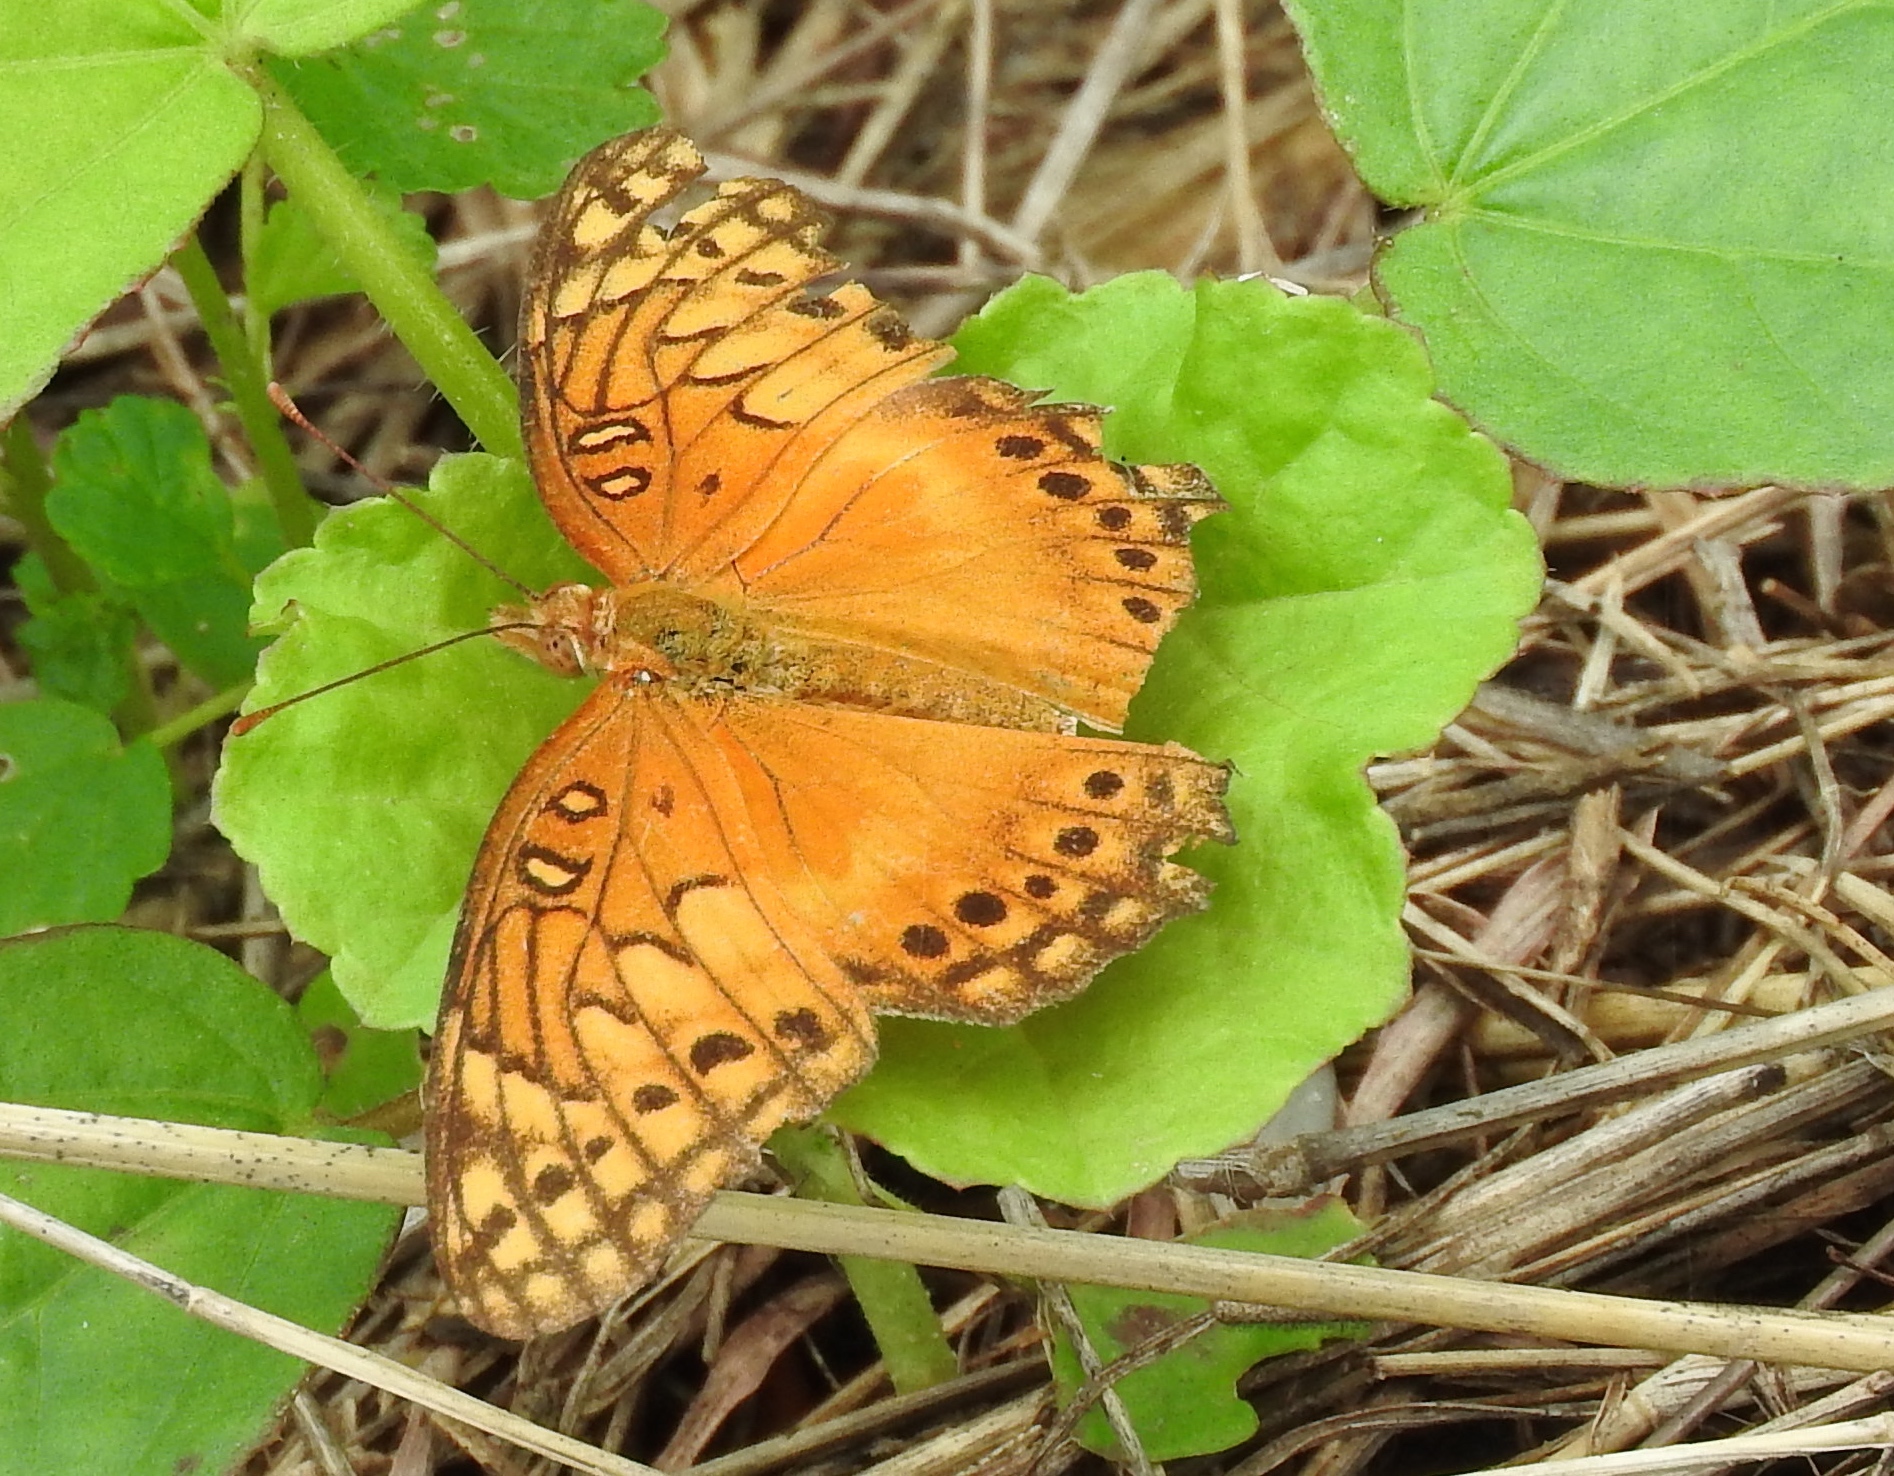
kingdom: Animalia
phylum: Arthropoda
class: Insecta
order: Lepidoptera
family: Nymphalidae
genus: Euptoieta
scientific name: Euptoieta hegesia
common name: Mexican fritillary
